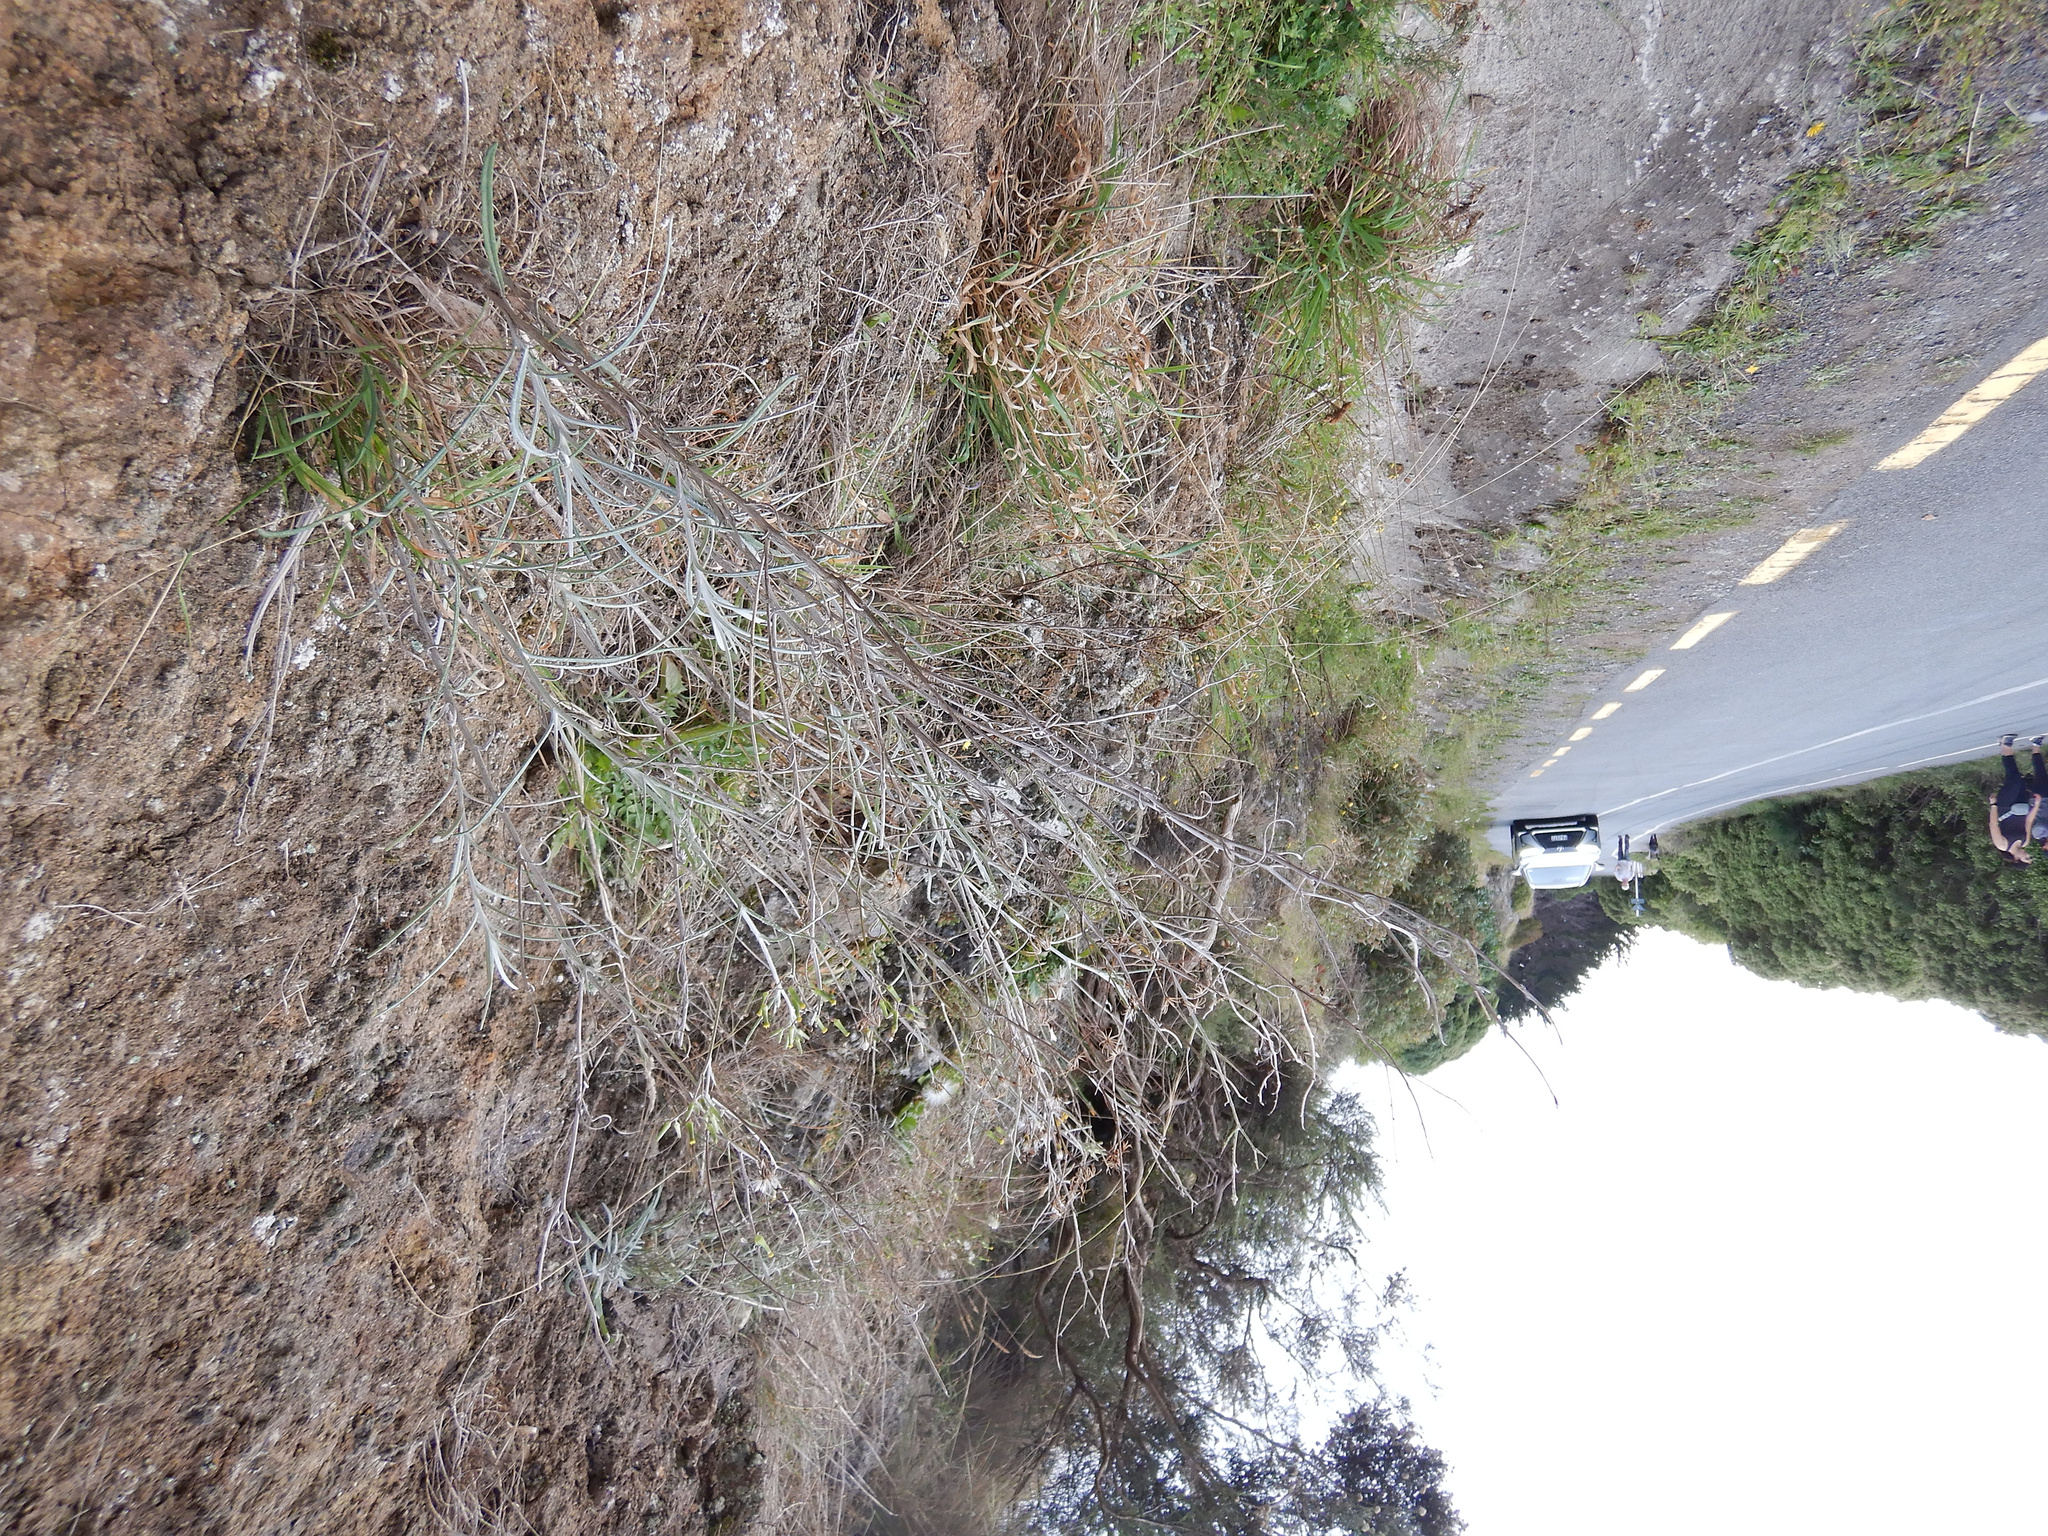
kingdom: Plantae
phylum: Tracheophyta
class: Magnoliopsida
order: Asterales
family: Asteraceae
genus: Senecio
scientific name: Senecio quadridentatus
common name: Cotton fireweed
